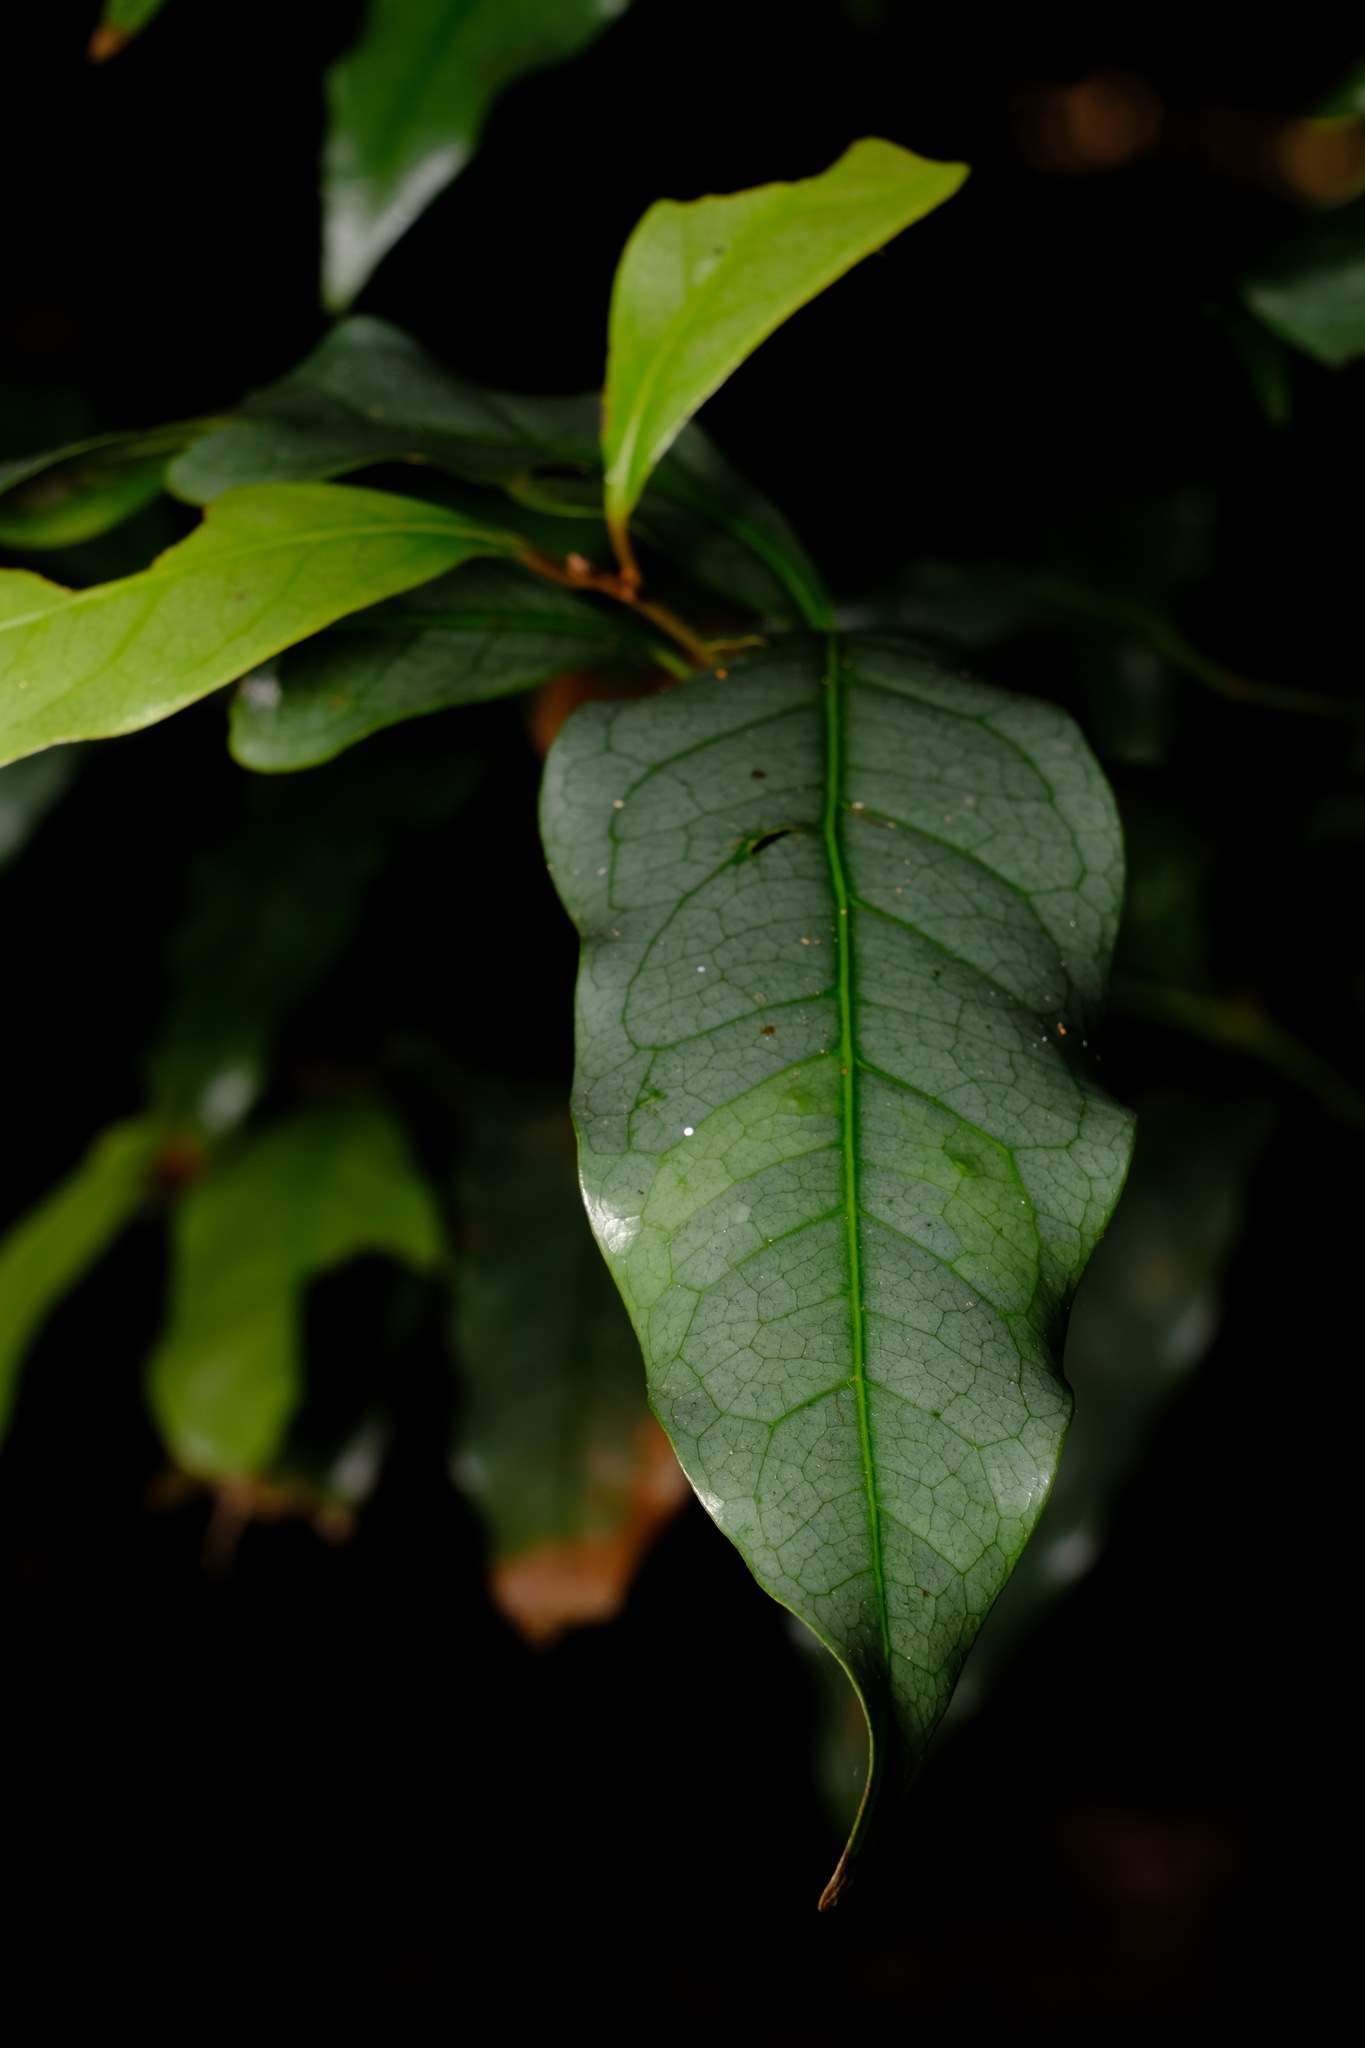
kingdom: Plantae
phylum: Tracheophyta
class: Magnoliopsida
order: Laurales
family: Lauraceae
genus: Beilschmiedia
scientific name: Beilschmiedia elliptica
